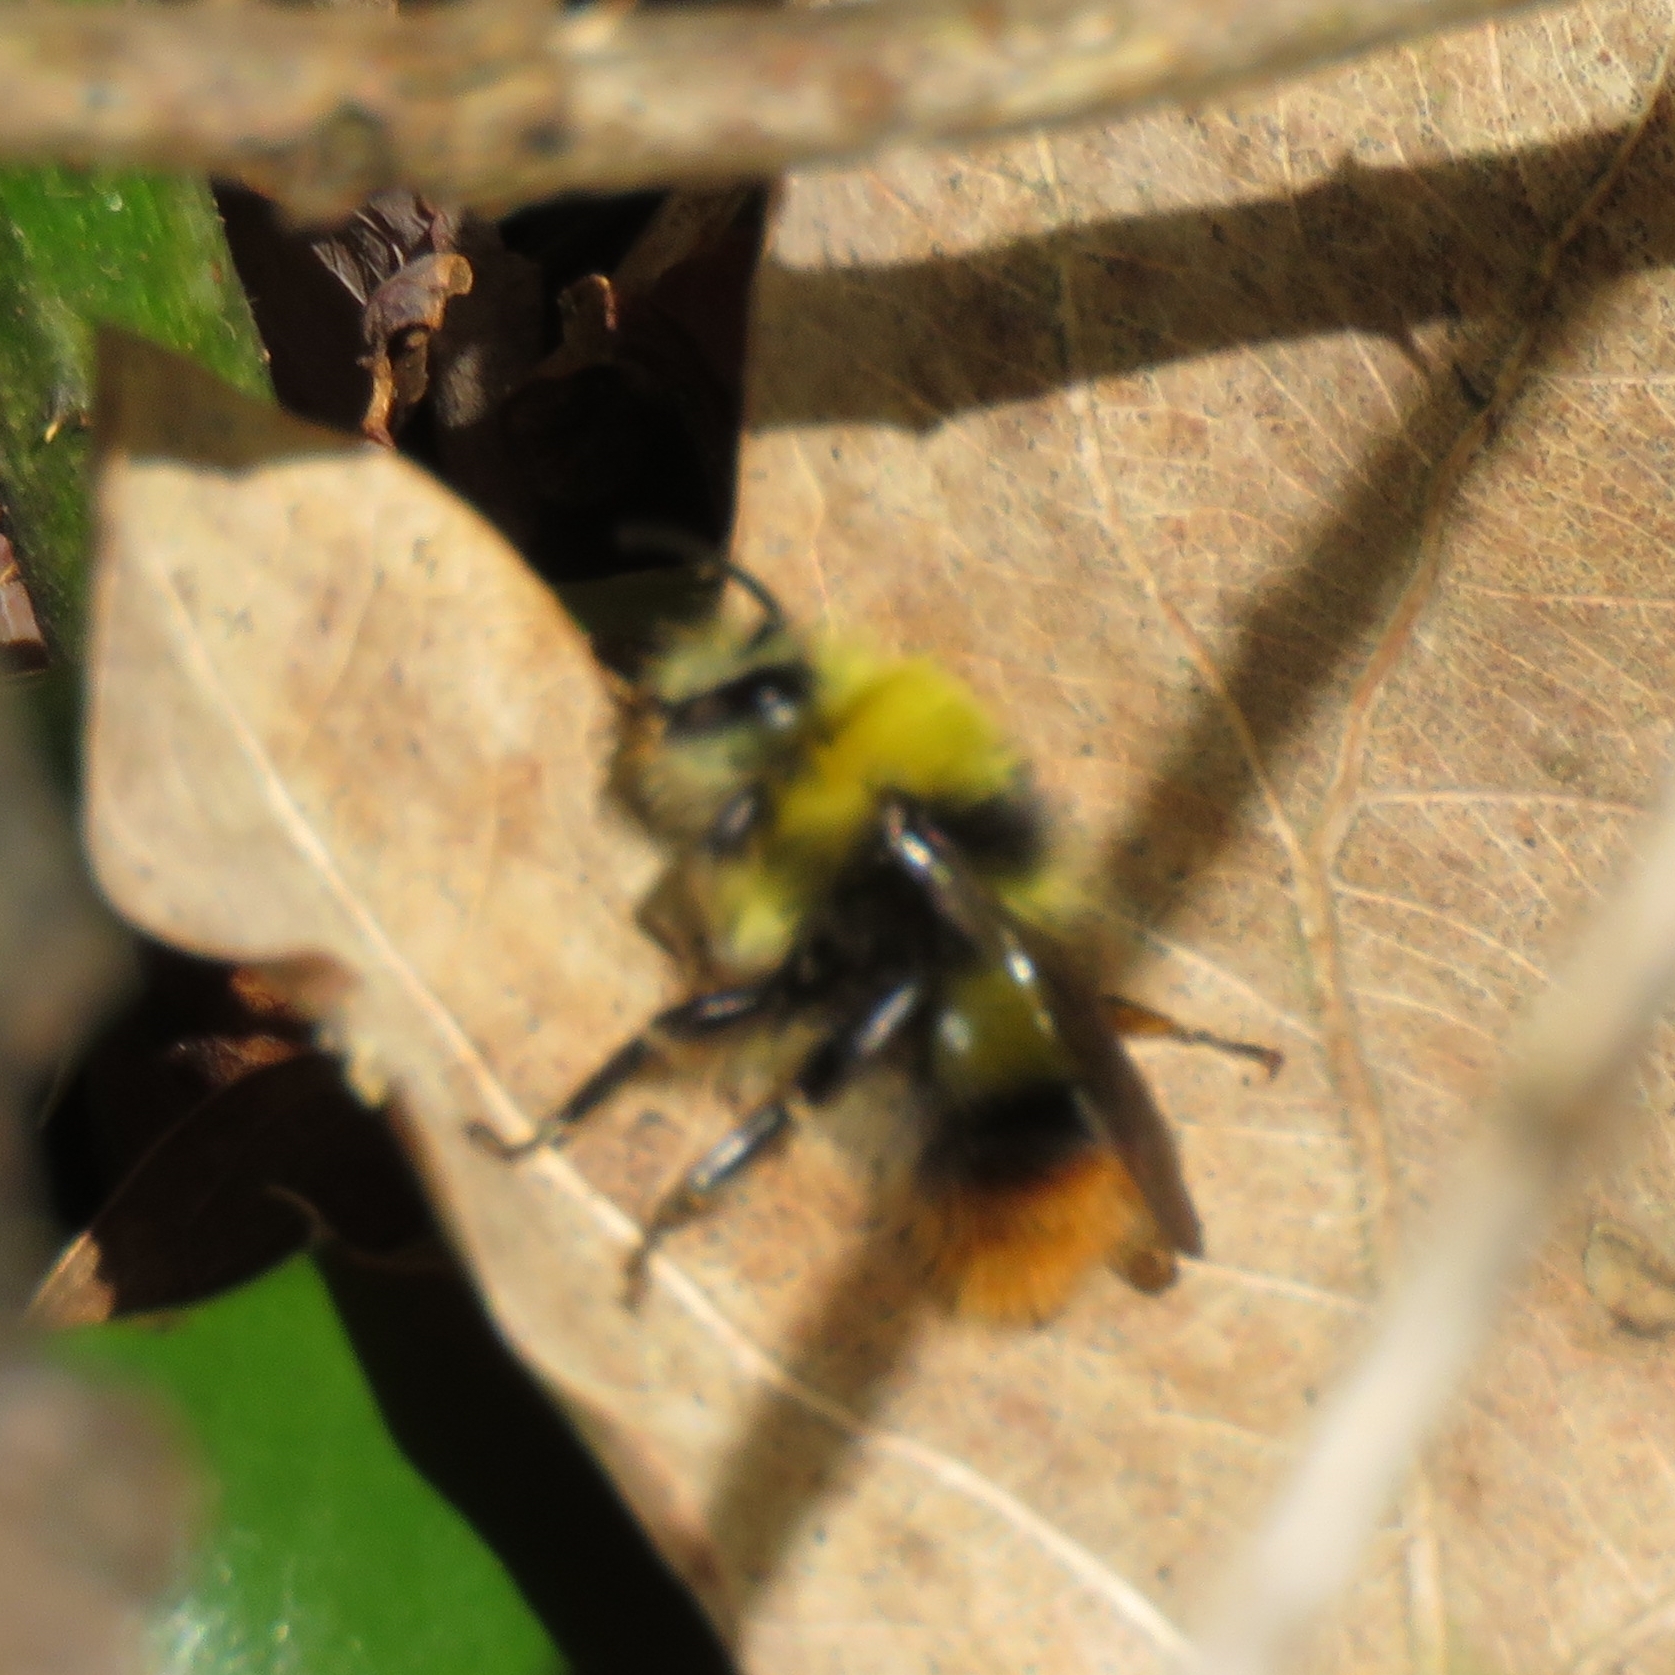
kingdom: Animalia
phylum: Arthropoda
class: Insecta
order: Hymenoptera
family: Apidae
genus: Bombus
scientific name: Bombus pratorum
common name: Early humble-bee
